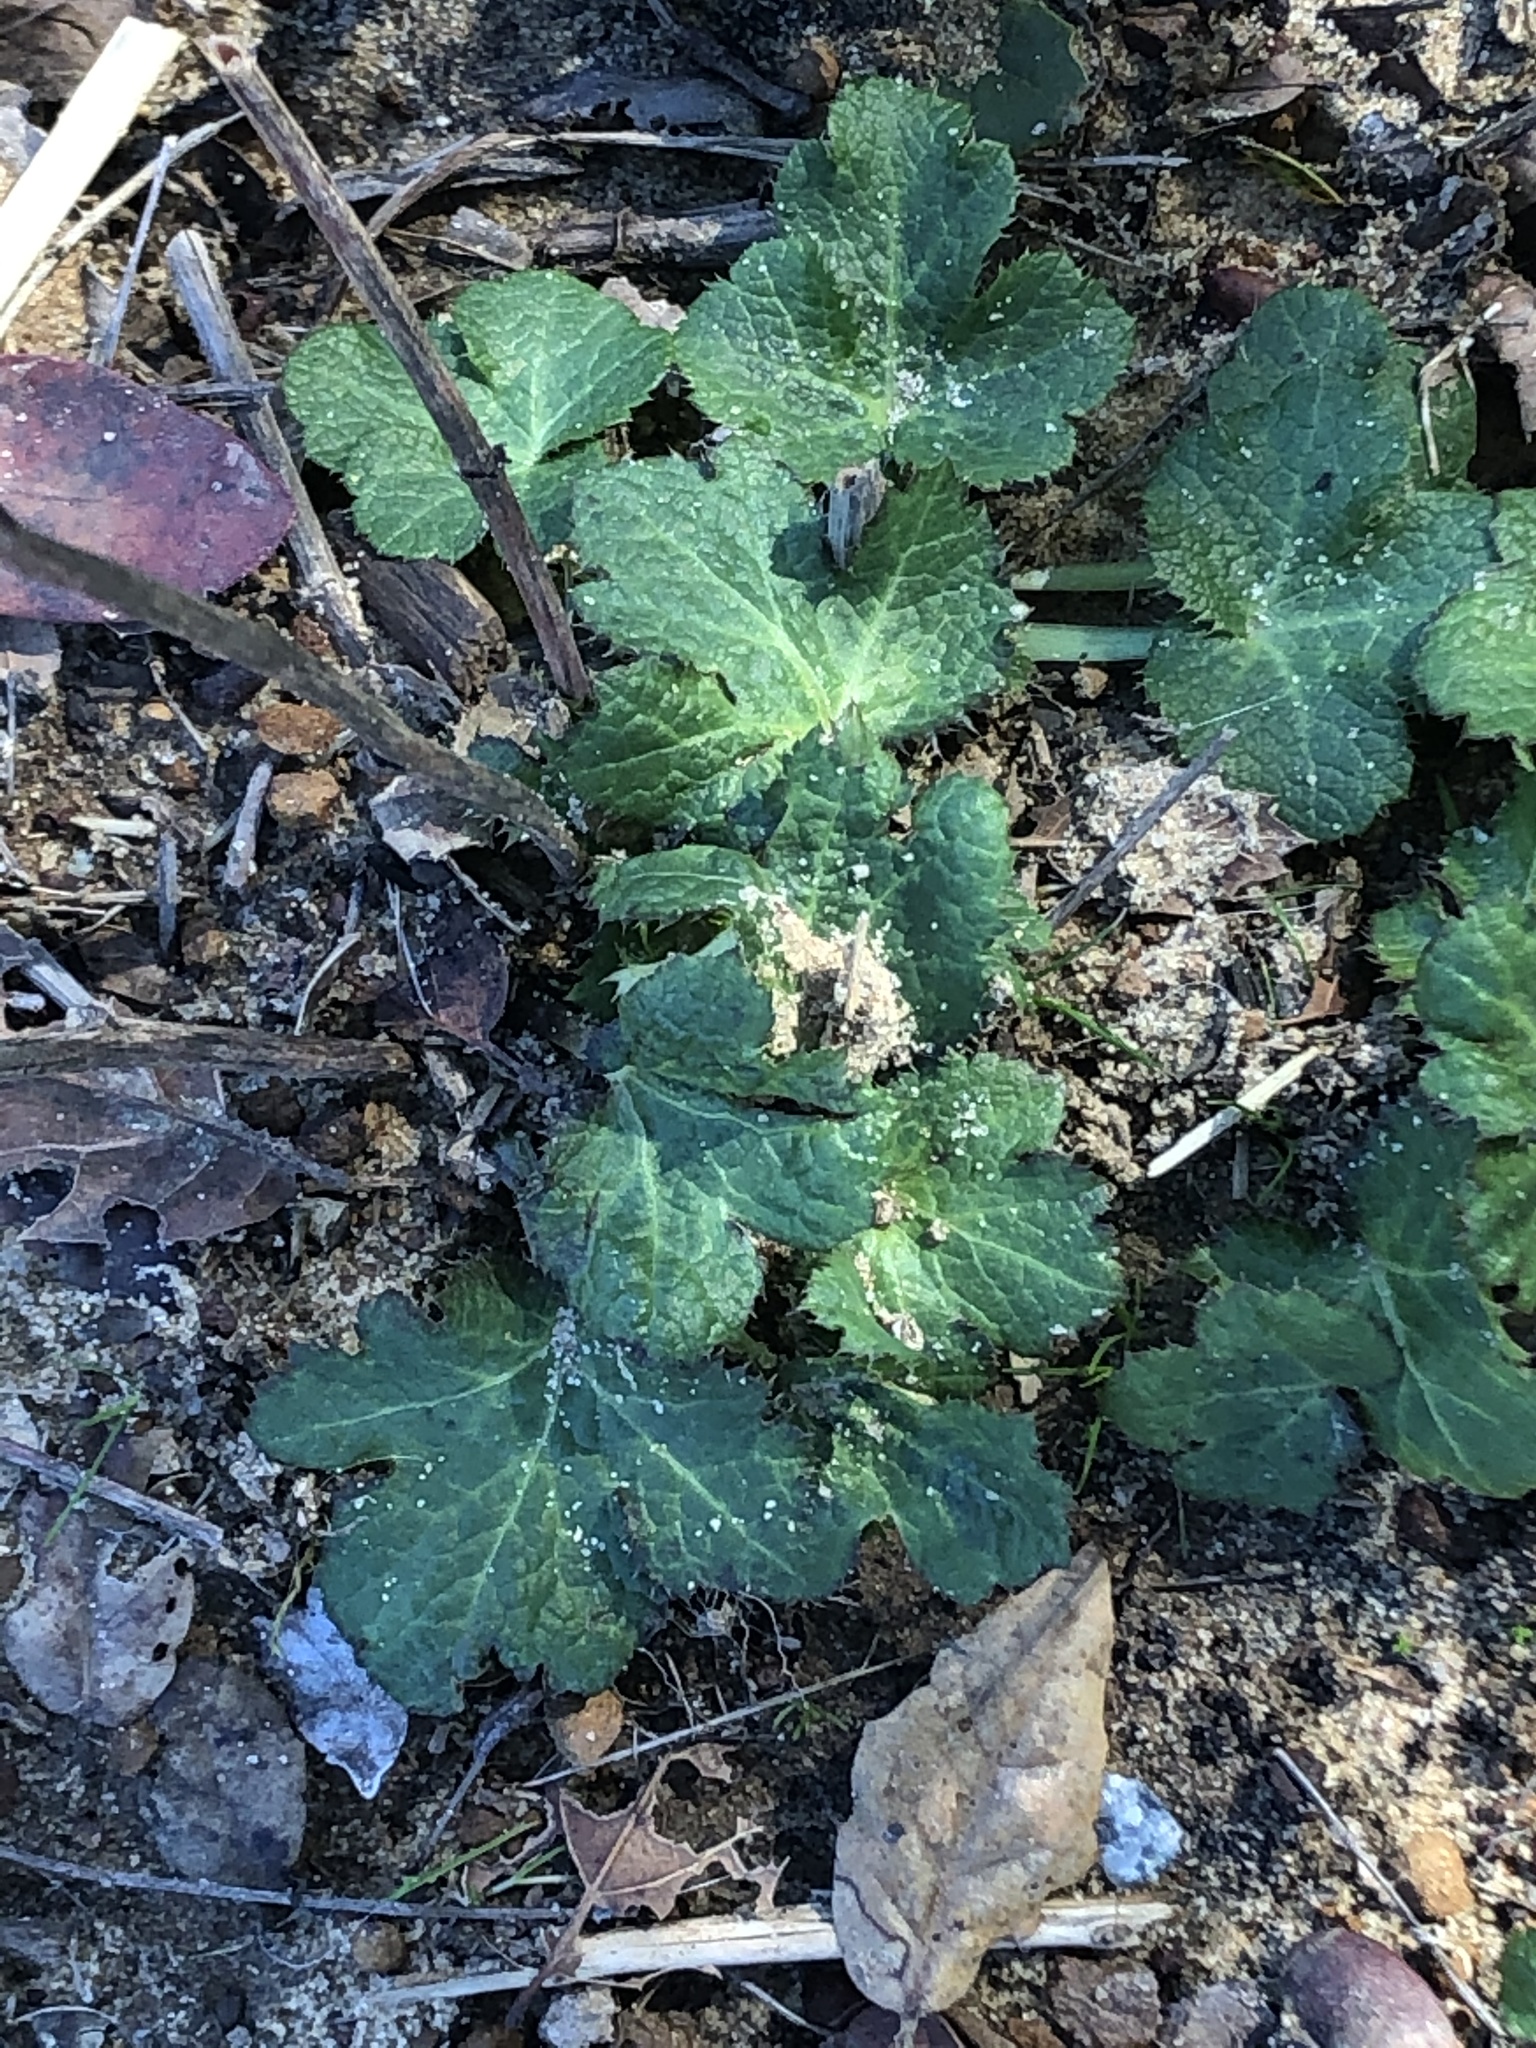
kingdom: Plantae
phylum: Tracheophyta
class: Magnoliopsida
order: Apiales
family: Apiaceae
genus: Sanicula
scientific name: Sanicula crassicaulis
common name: Western snakeroot
